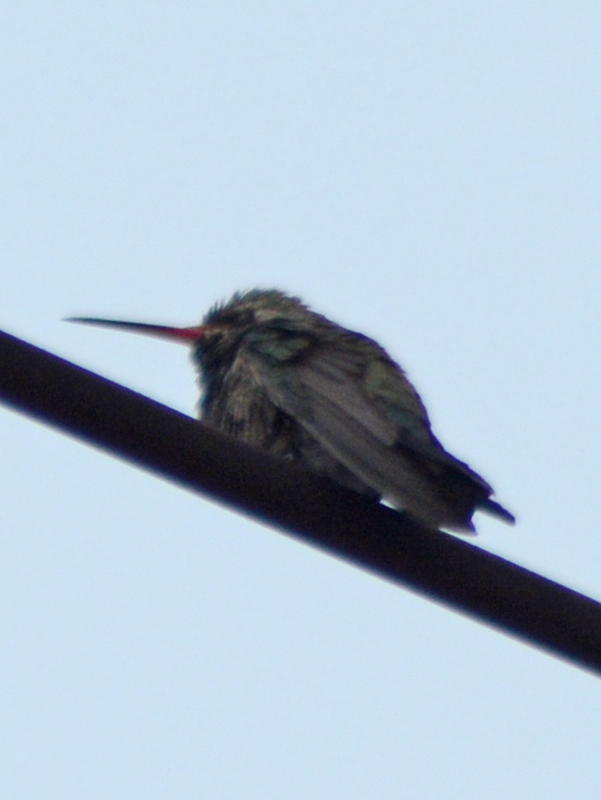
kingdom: Animalia
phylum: Chordata
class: Aves
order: Apodiformes
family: Trochilidae
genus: Cynanthus
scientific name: Cynanthus latirostris
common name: Broad-billed hummingbird
